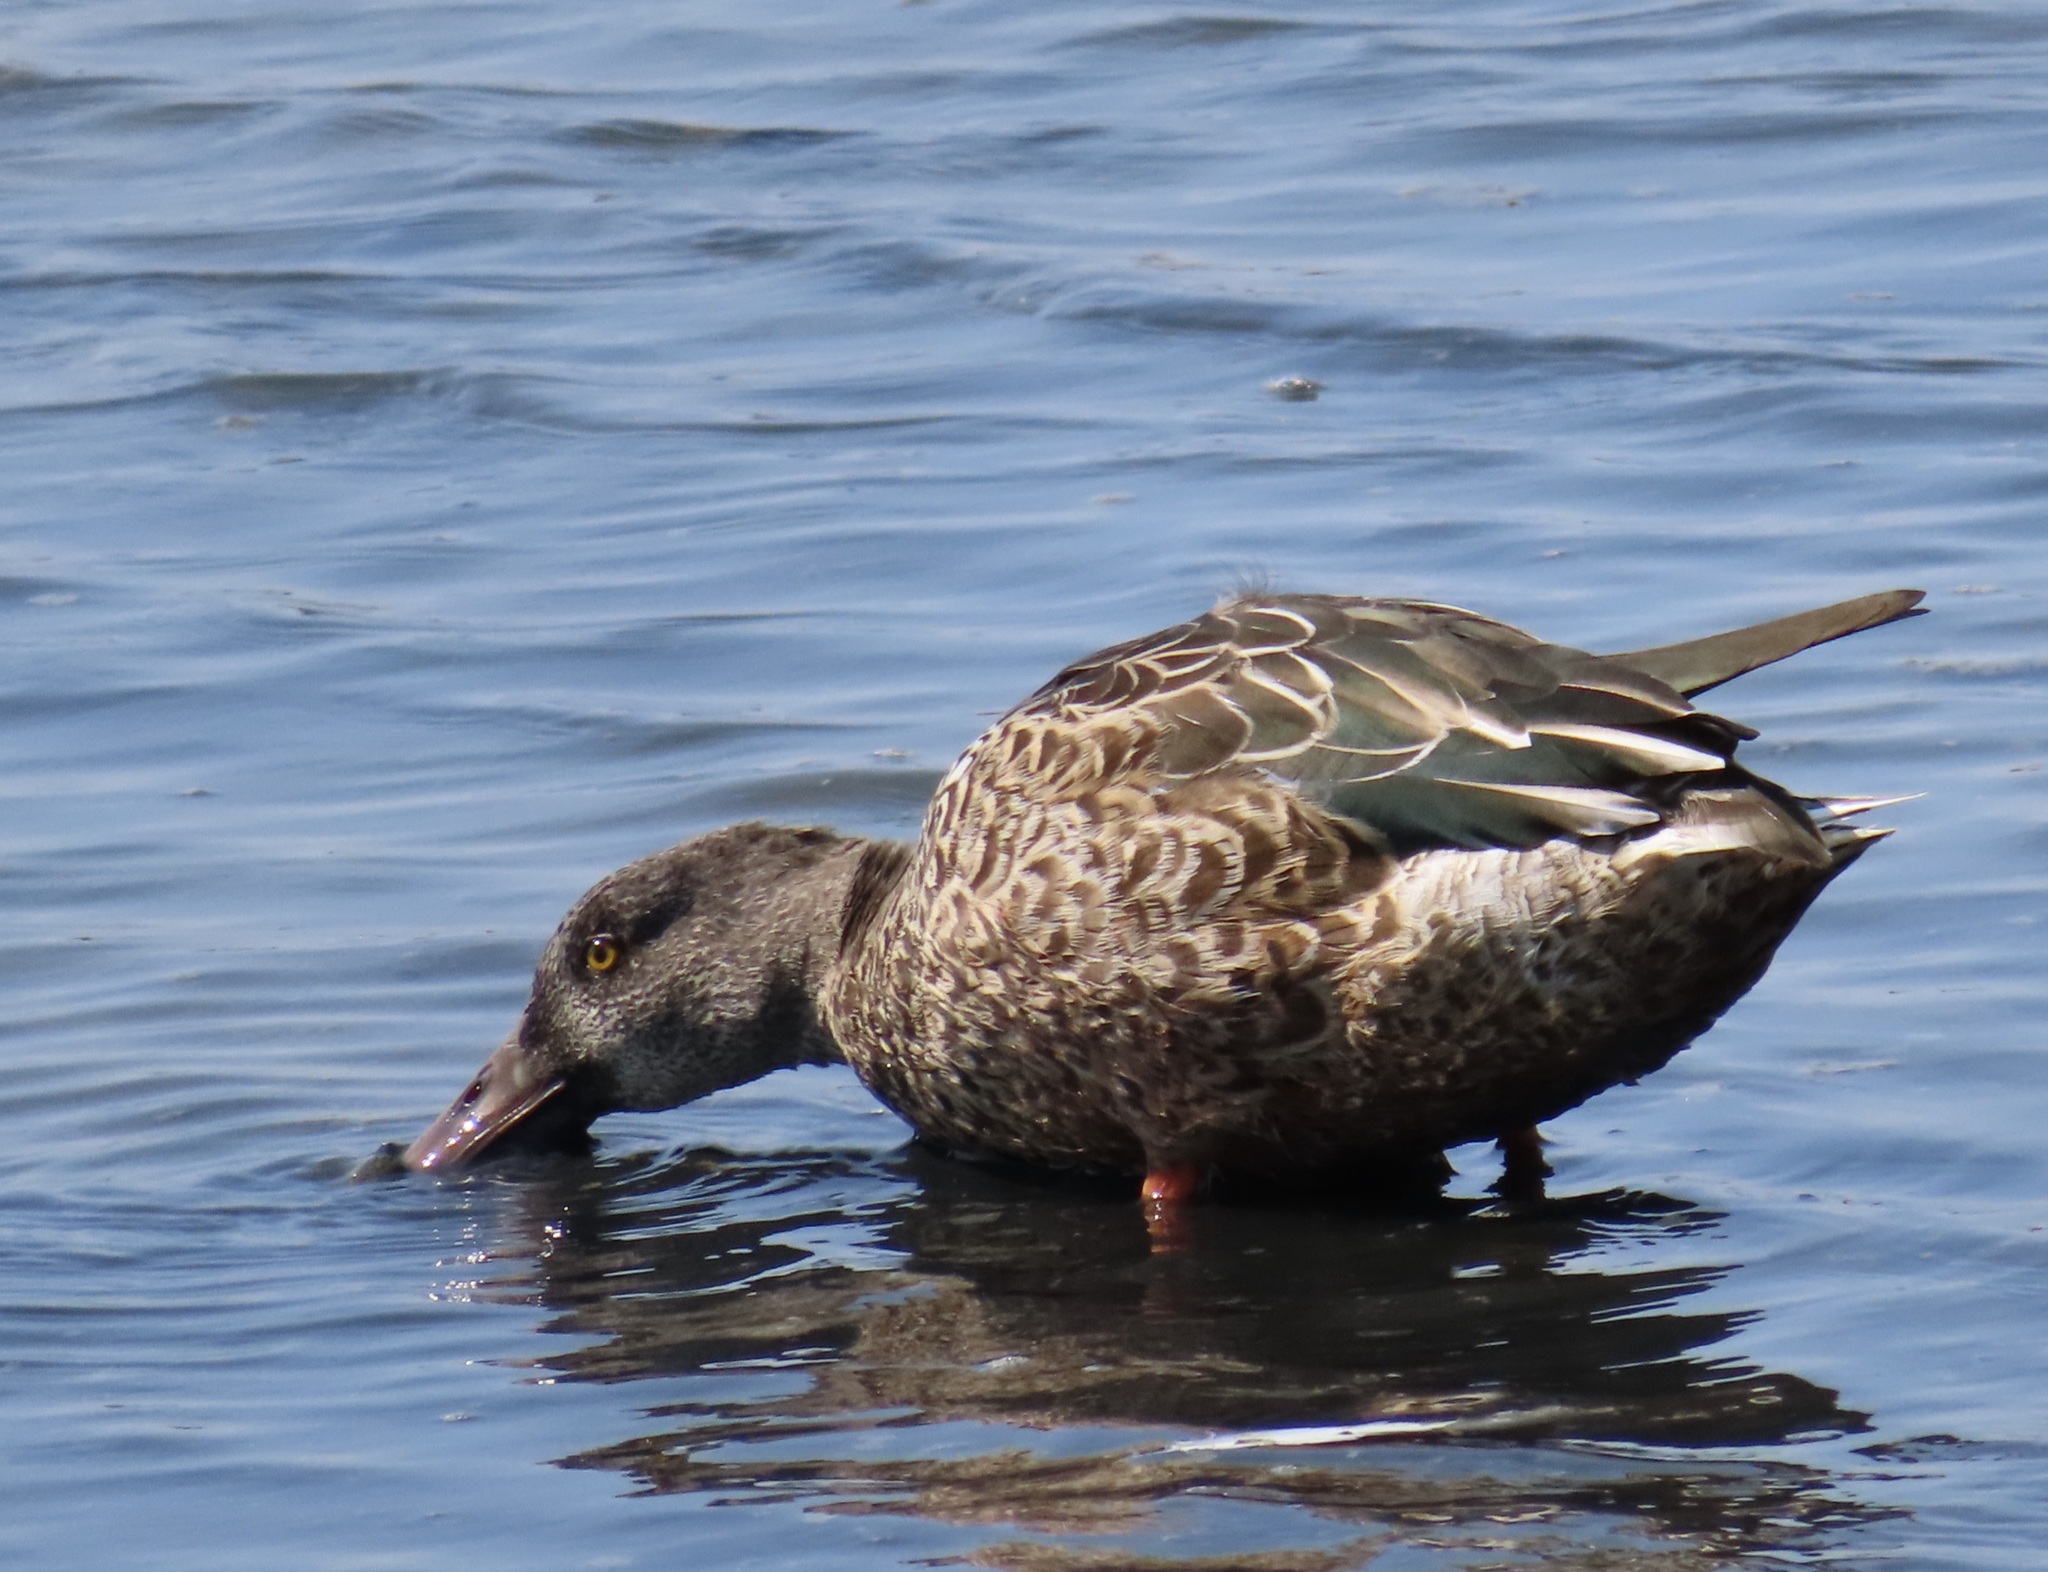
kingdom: Animalia
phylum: Chordata
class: Aves
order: Anseriformes
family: Anatidae
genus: Spatula
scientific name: Spatula clypeata
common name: Northern shoveler
